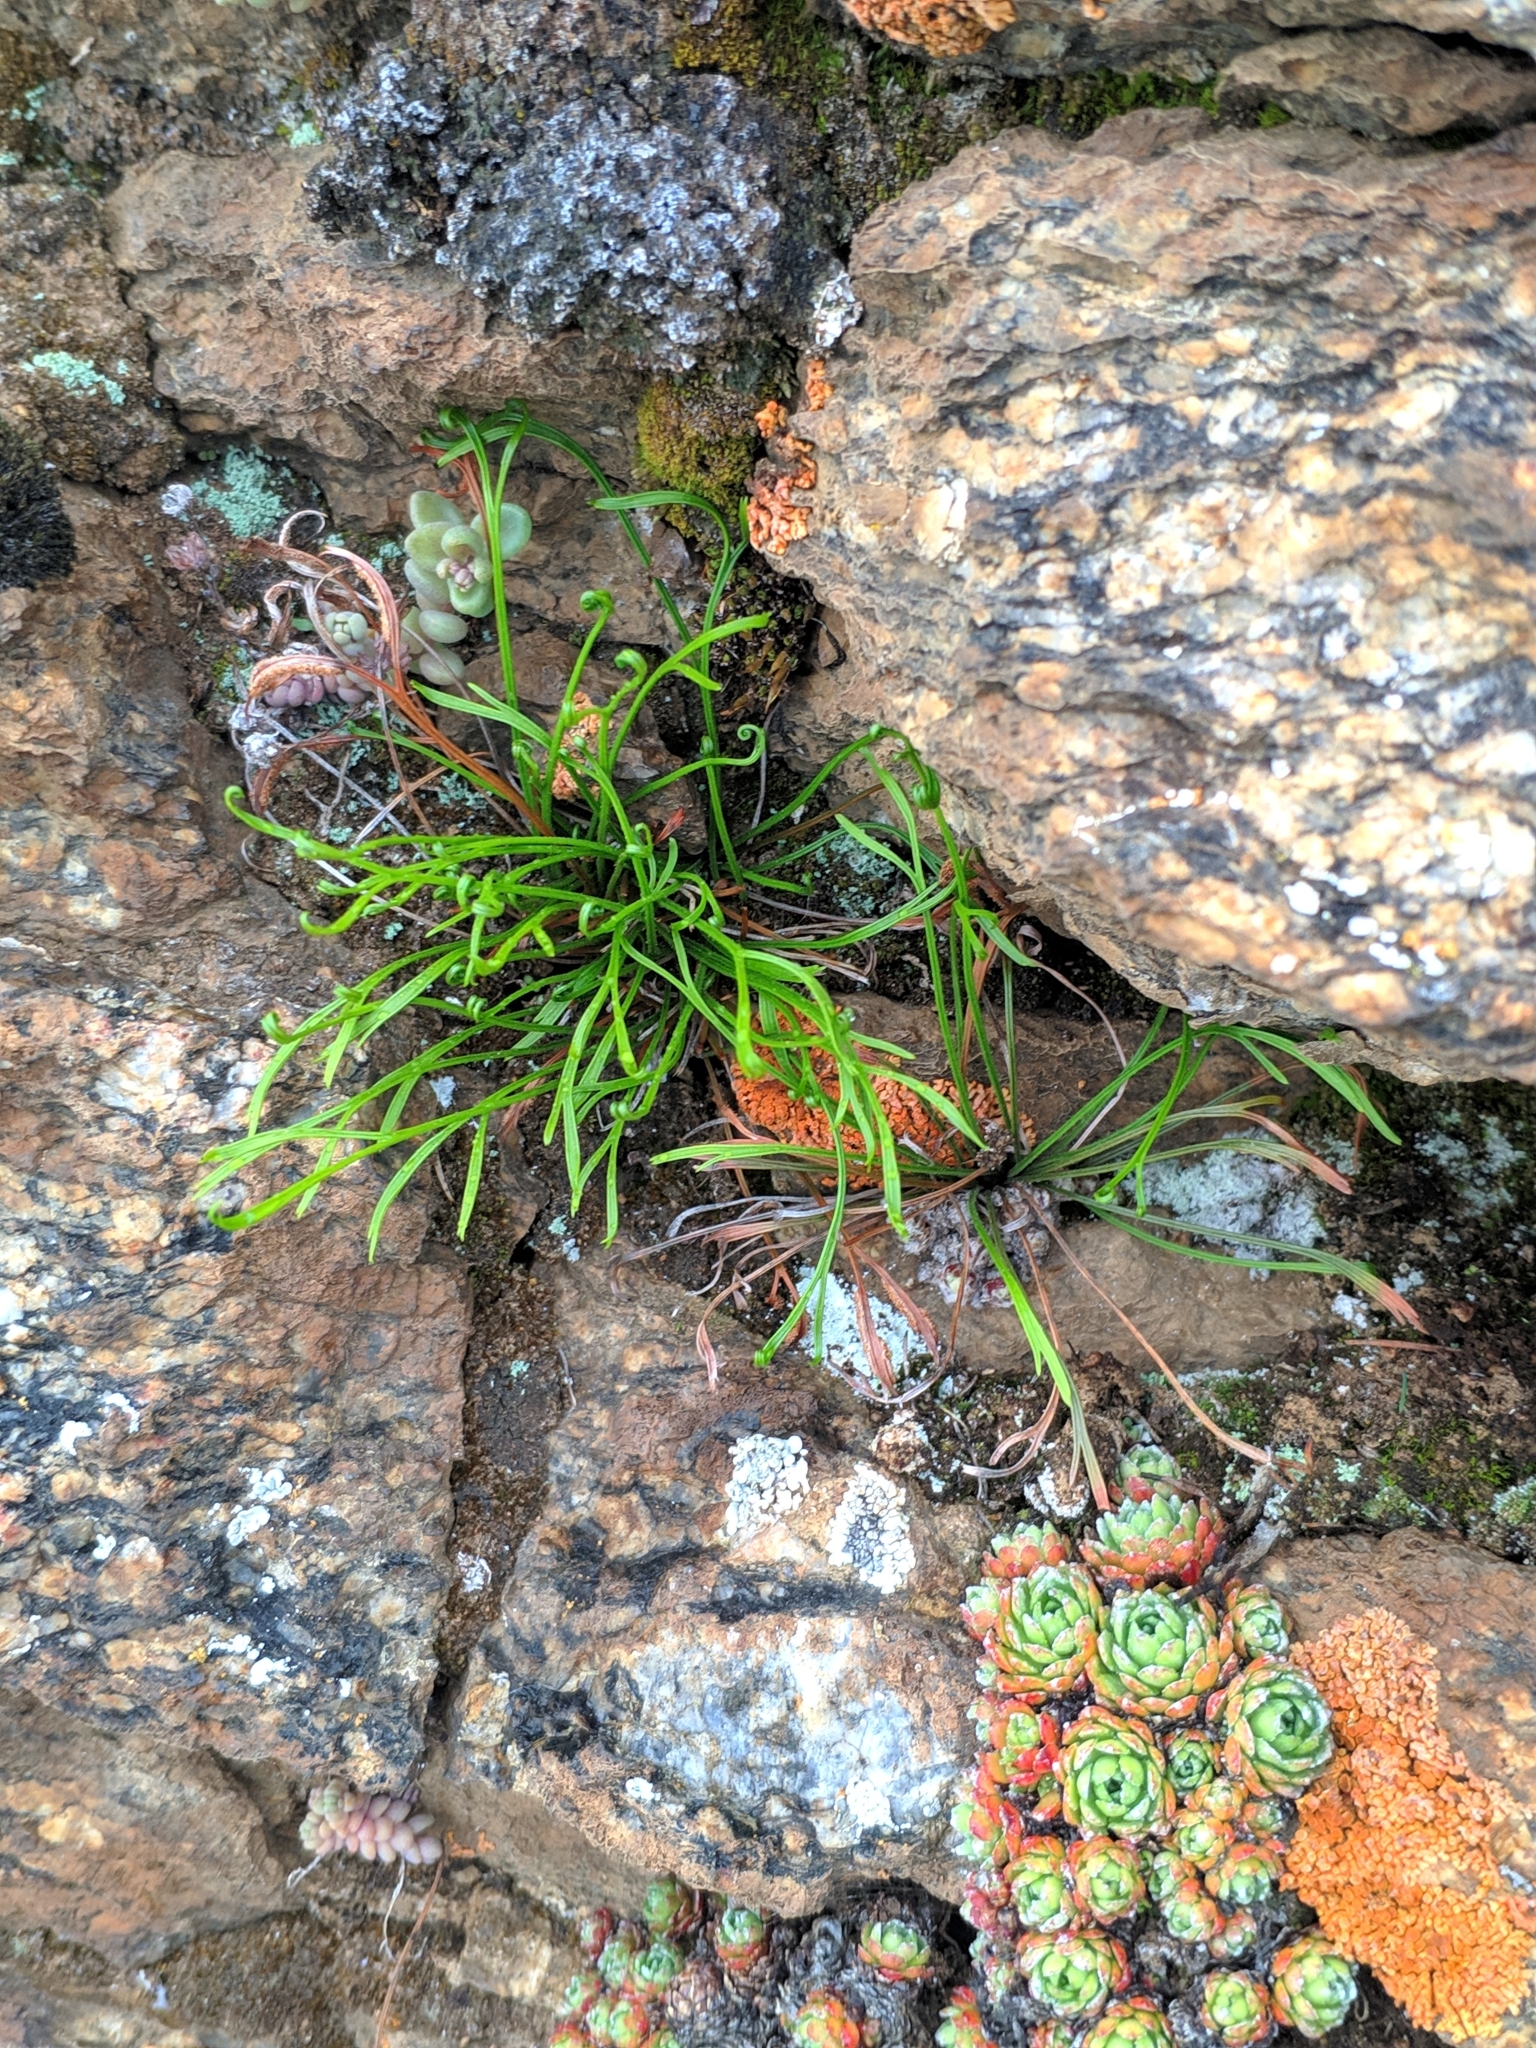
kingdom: Plantae
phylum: Tracheophyta
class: Polypodiopsida
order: Polypodiales
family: Aspleniaceae
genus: Asplenium
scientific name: Asplenium septentrionale
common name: Forked spleenwort
